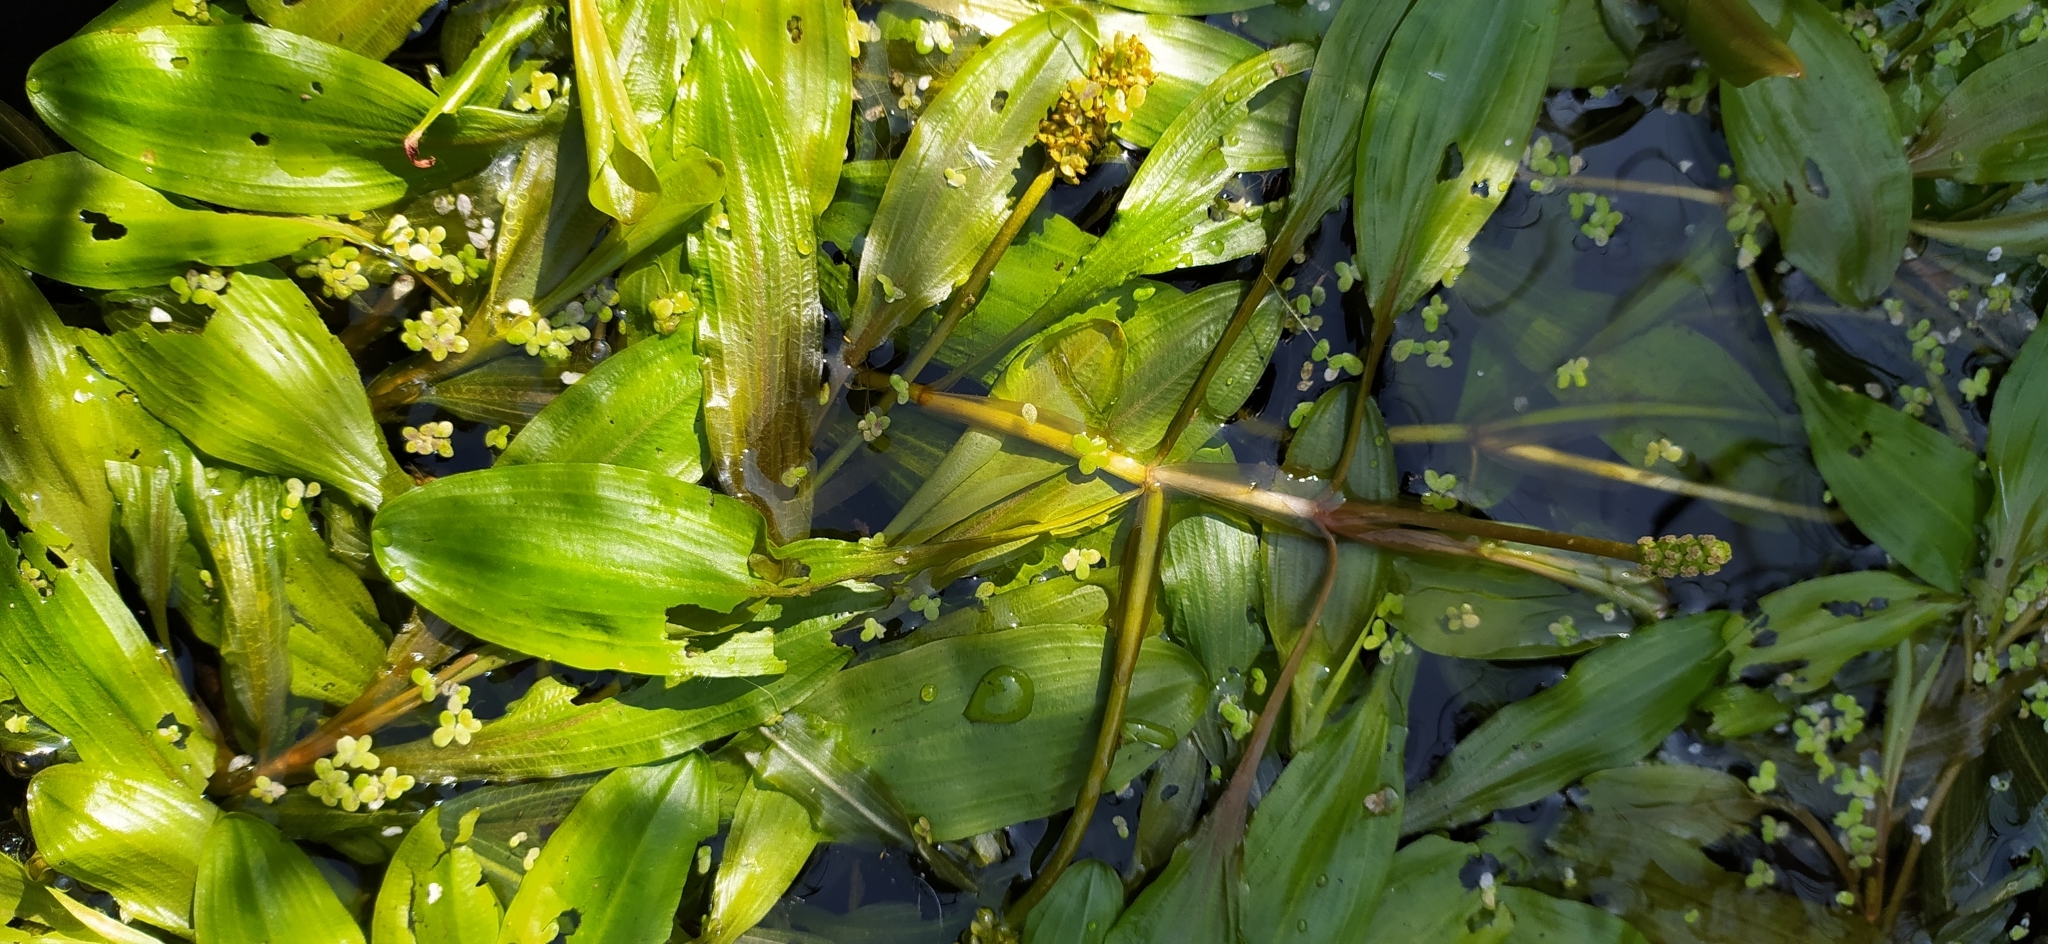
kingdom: Plantae
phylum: Tracheophyta
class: Liliopsida
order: Alismatales
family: Potamogetonaceae
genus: Potamogeton
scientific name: Potamogeton alpinus
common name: Red pondweed
